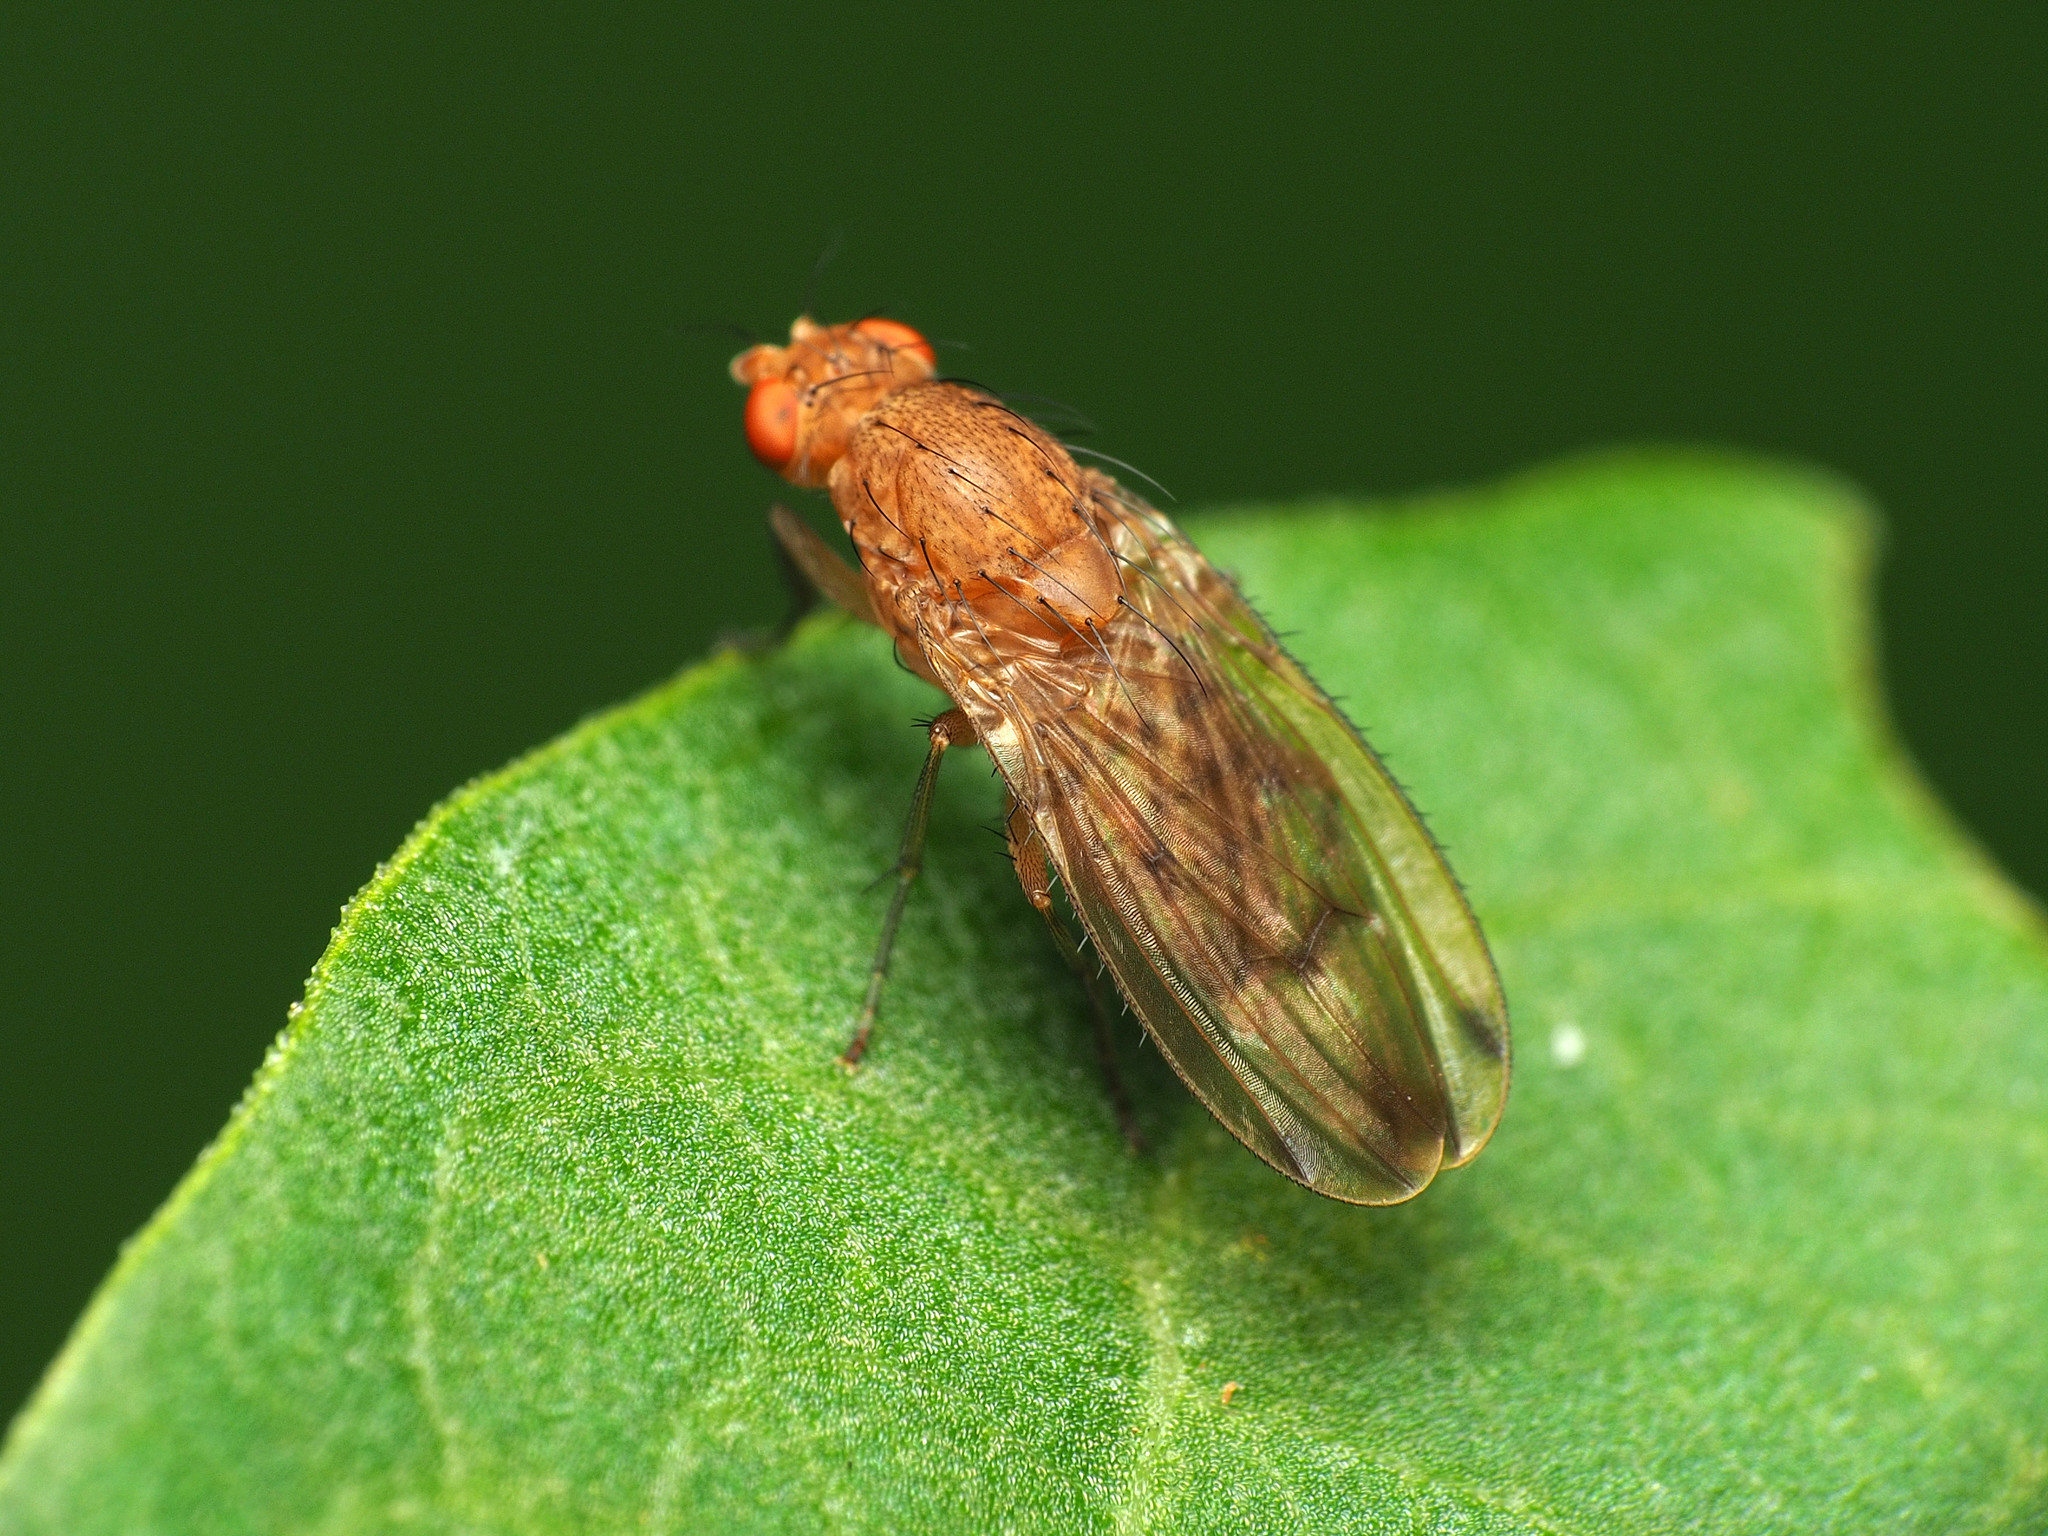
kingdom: Animalia
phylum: Arthropoda
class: Insecta
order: Diptera
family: Heleomyzidae
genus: Suillia
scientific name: Suillia plumata
